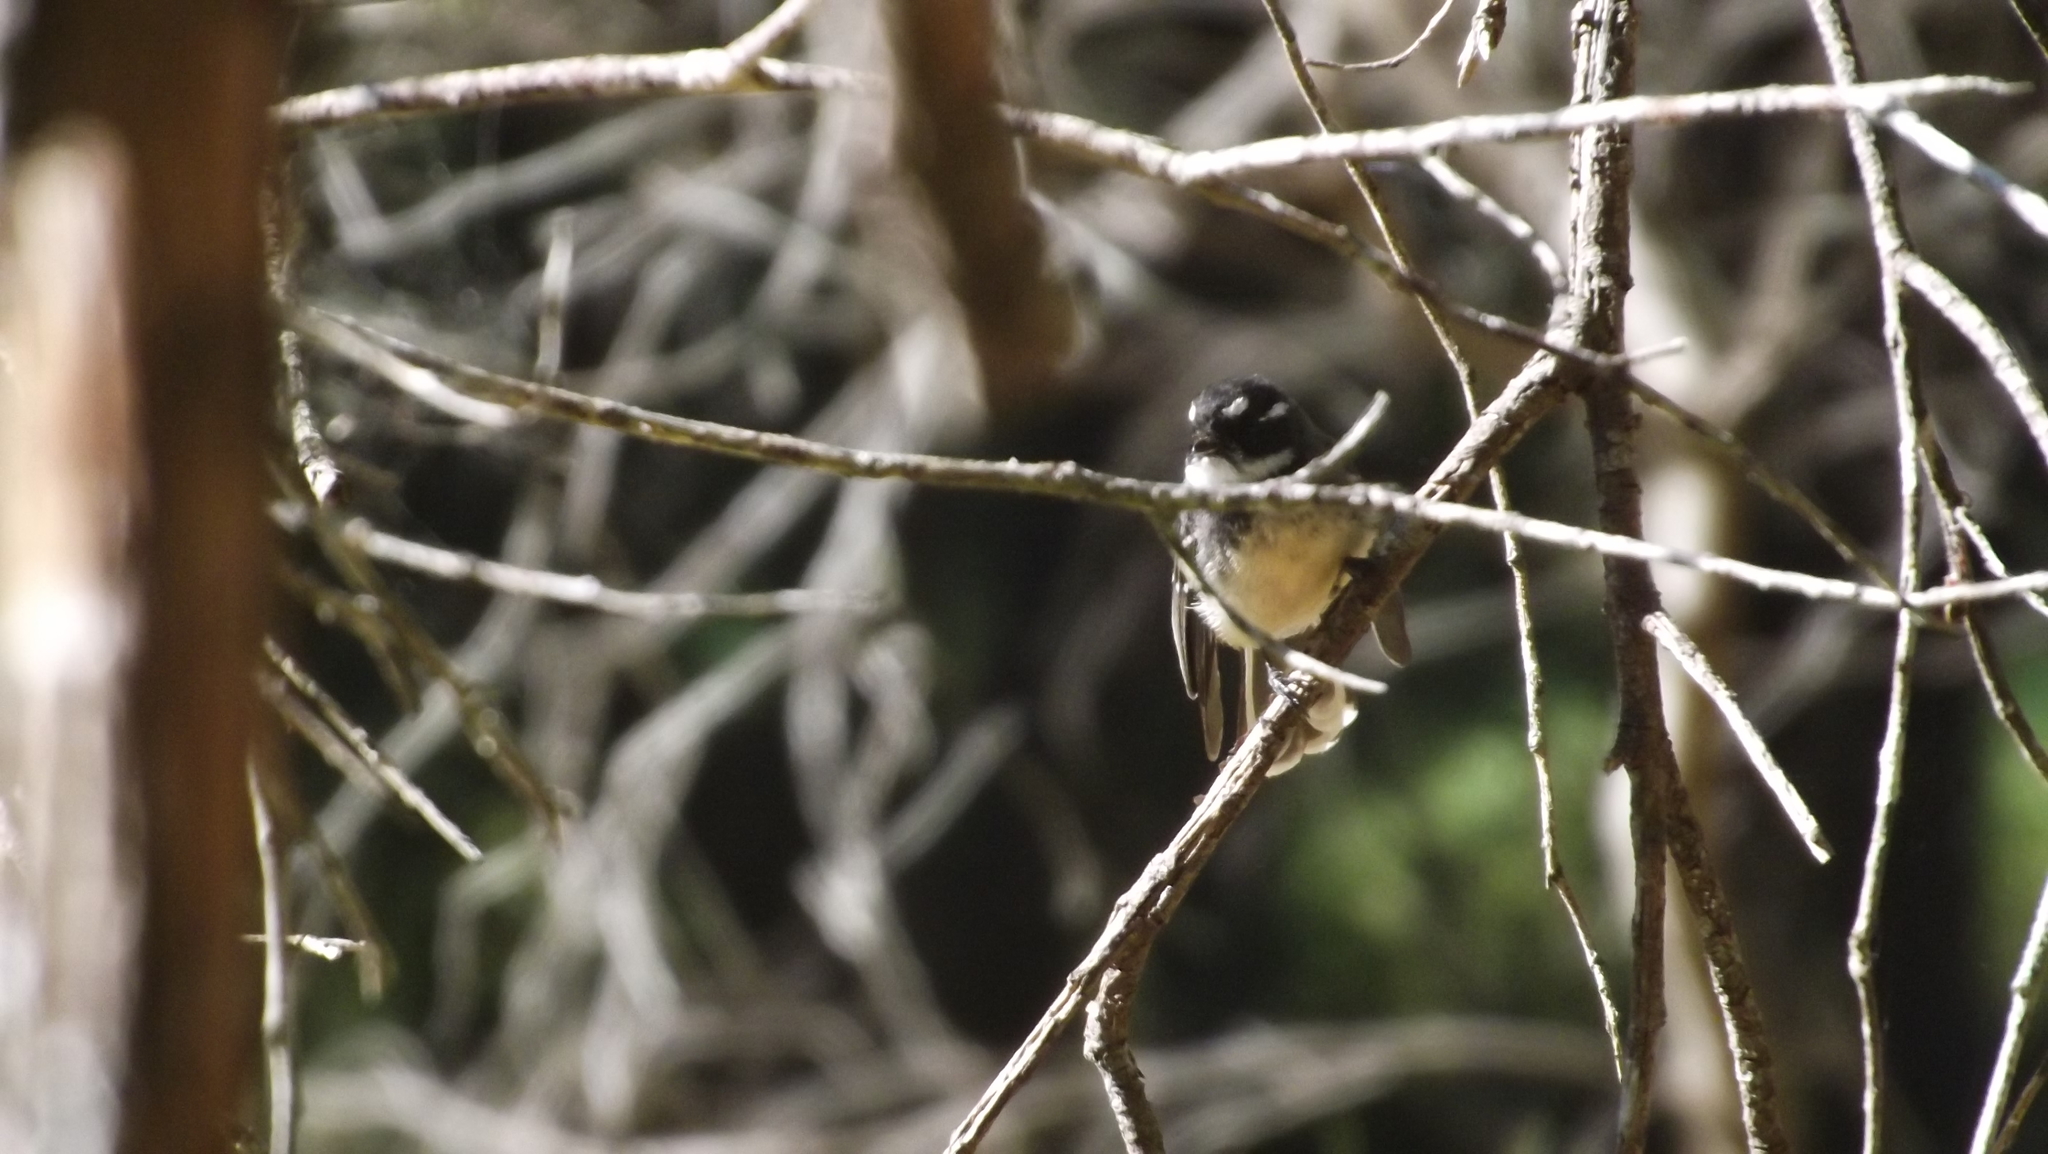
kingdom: Animalia
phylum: Chordata
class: Aves
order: Passeriformes
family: Rhipiduridae
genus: Rhipidura
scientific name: Rhipidura albiscapa
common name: Grey fantail
